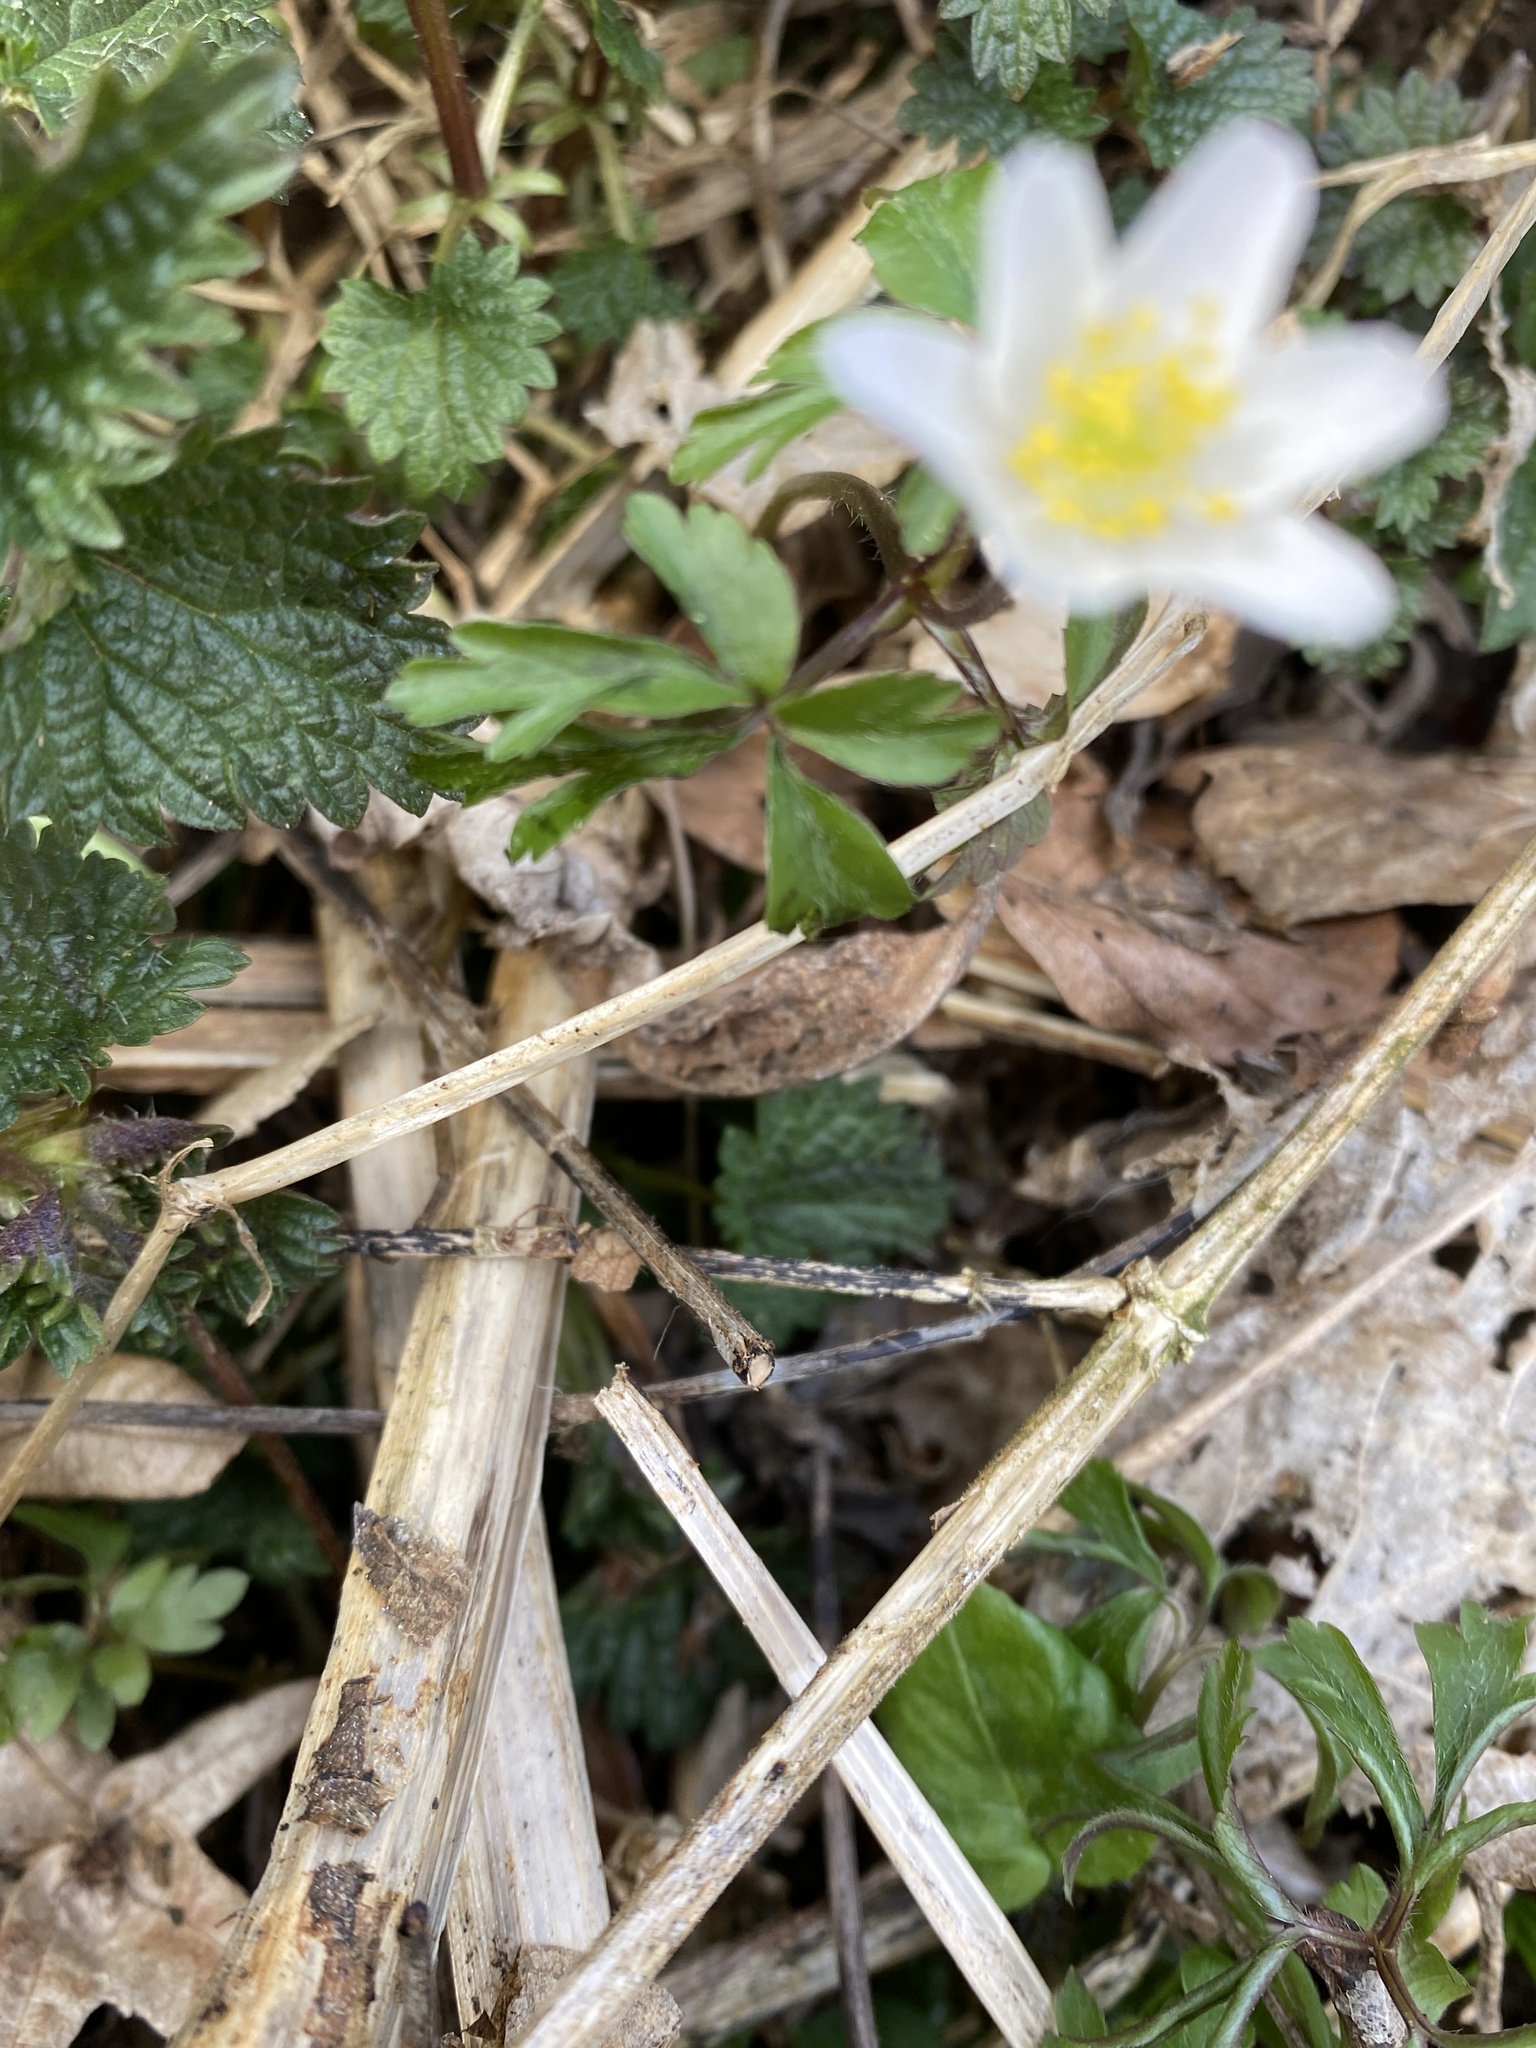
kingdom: Plantae
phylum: Tracheophyta
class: Magnoliopsida
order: Ranunculales
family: Ranunculaceae
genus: Anemone
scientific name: Anemone nemorosa
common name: Wood anemone
